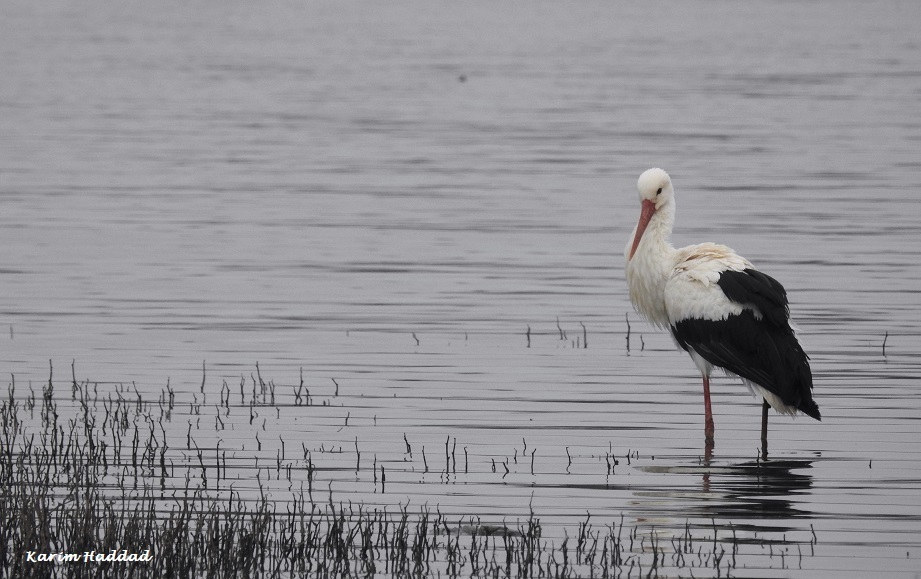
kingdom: Animalia
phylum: Chordata
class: Aves
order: Ciconiiformes
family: Ciconiidae
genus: Ciconia
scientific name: Ciconia ciconia
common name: White stork
